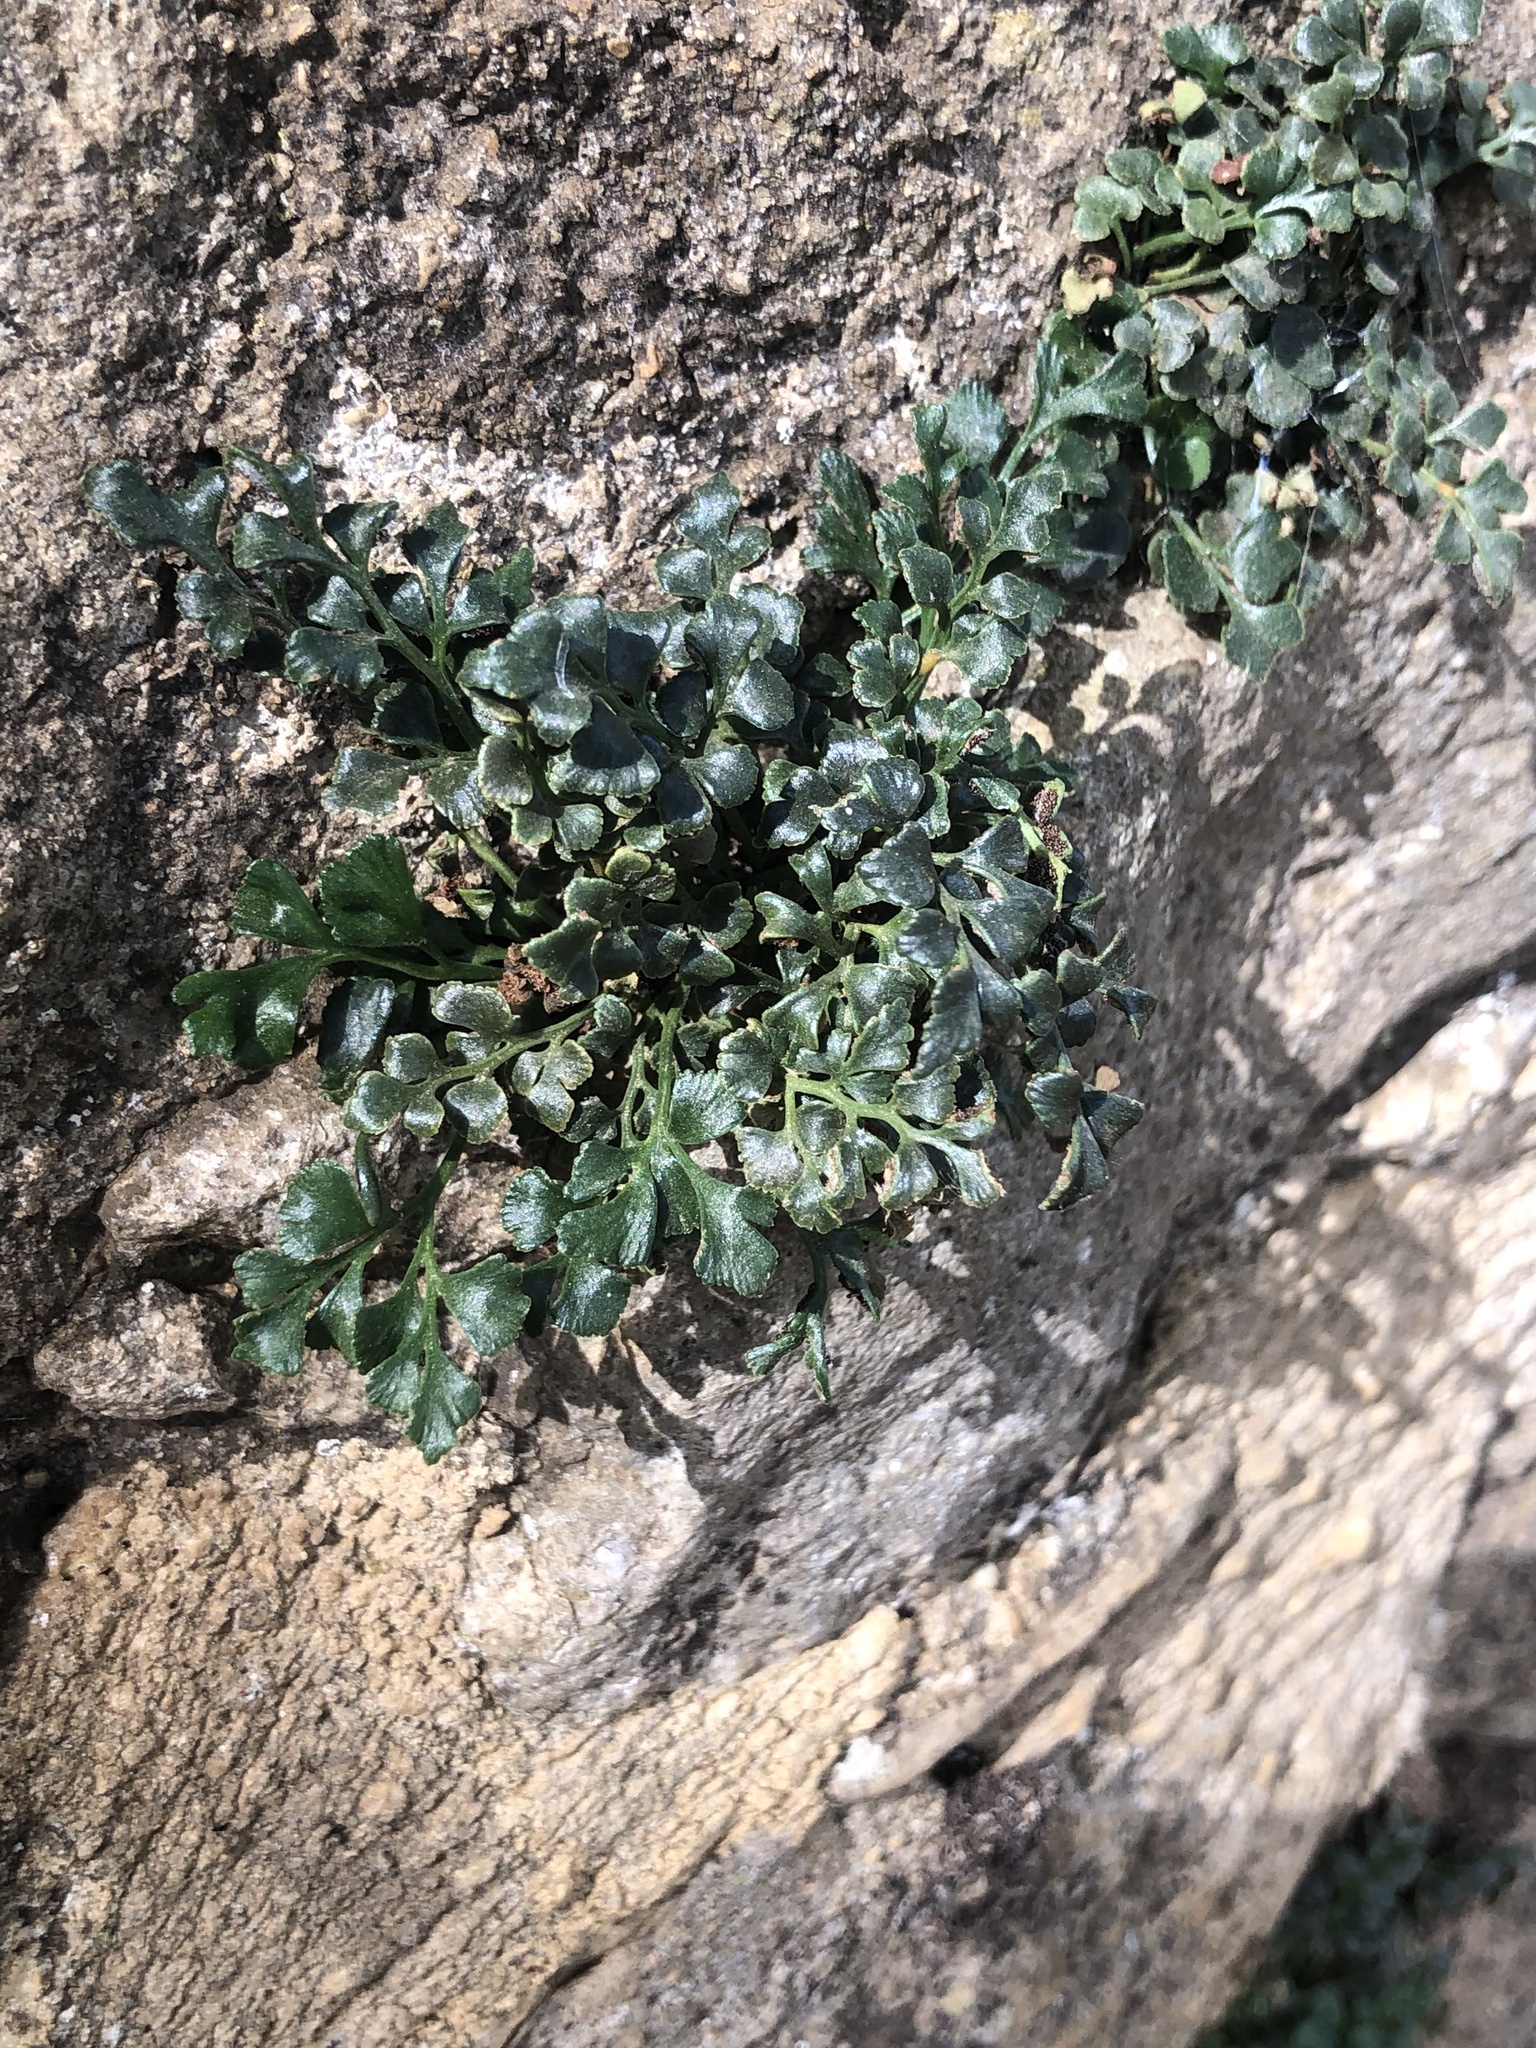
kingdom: Plantae
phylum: Tracheophyta
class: Polypodiopsida
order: Polypodiales
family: Aspleniaceae
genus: Asplenium
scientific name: Asplenium ruta-muraria
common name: Wall-rue
